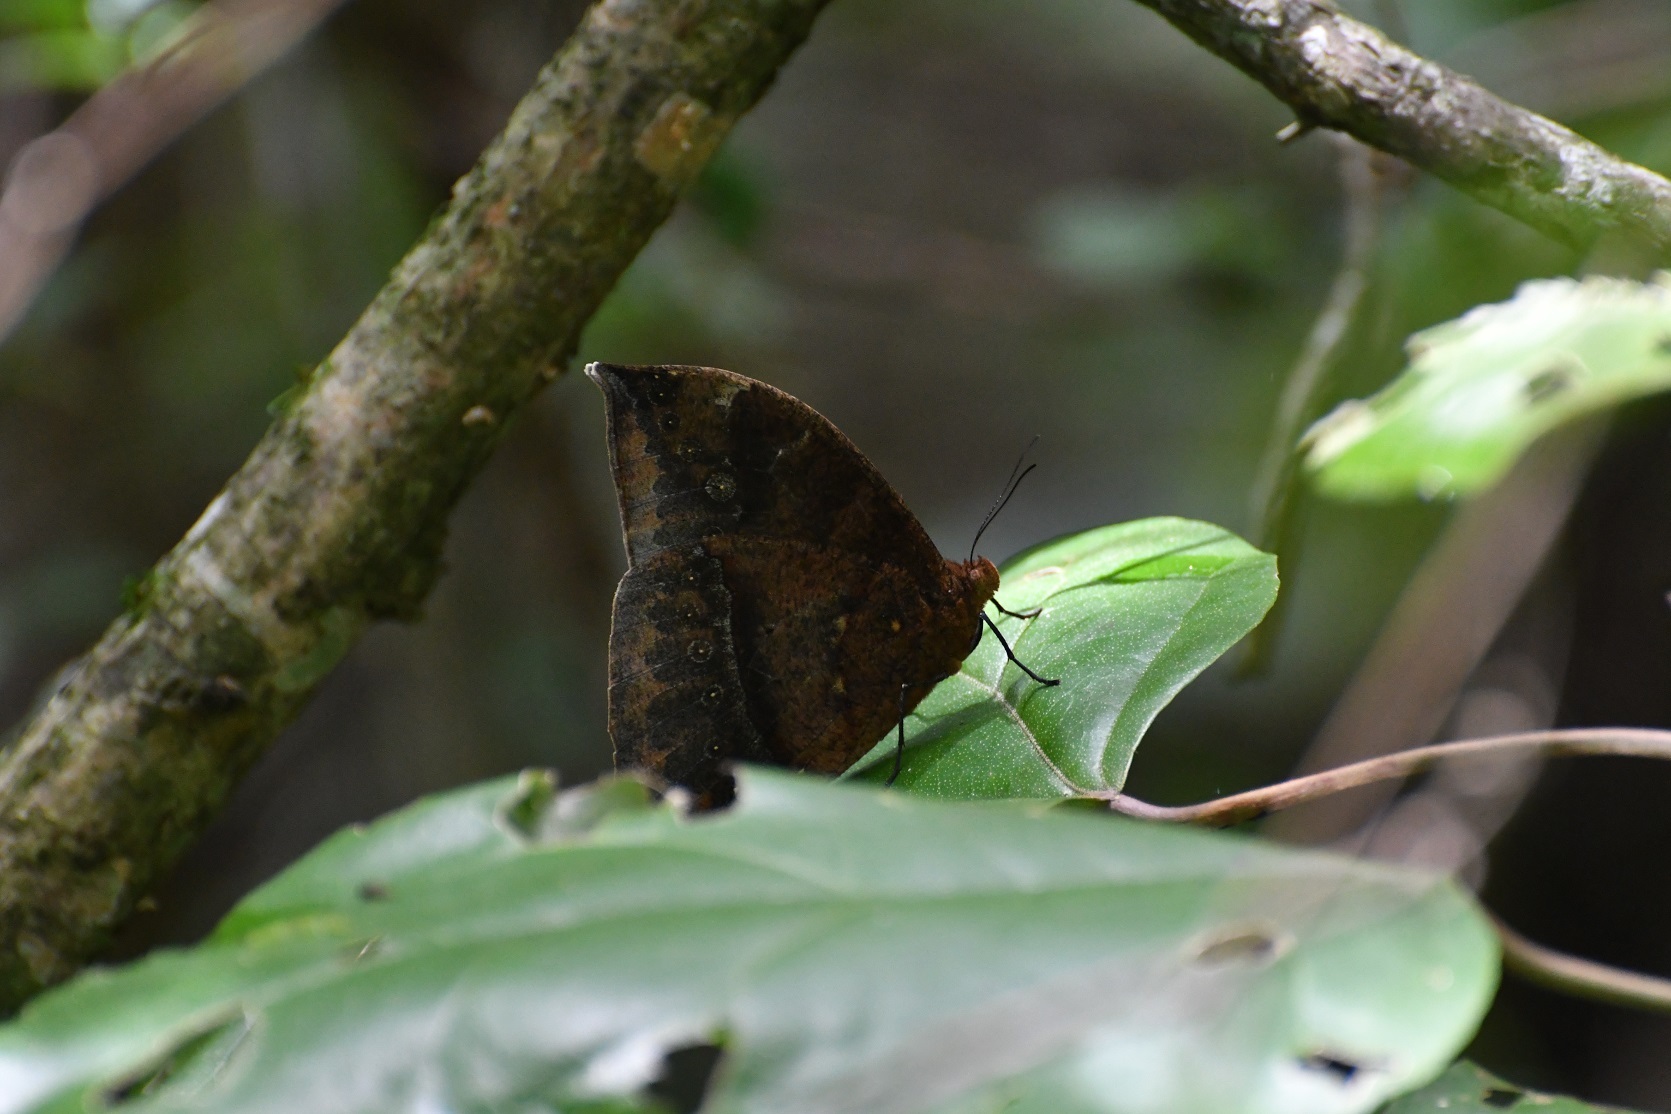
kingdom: Animalia
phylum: Arthropoda
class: Insecta
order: Lepidoptera
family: Nymphalidae
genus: Taygetis
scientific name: Taygetis mermeria
